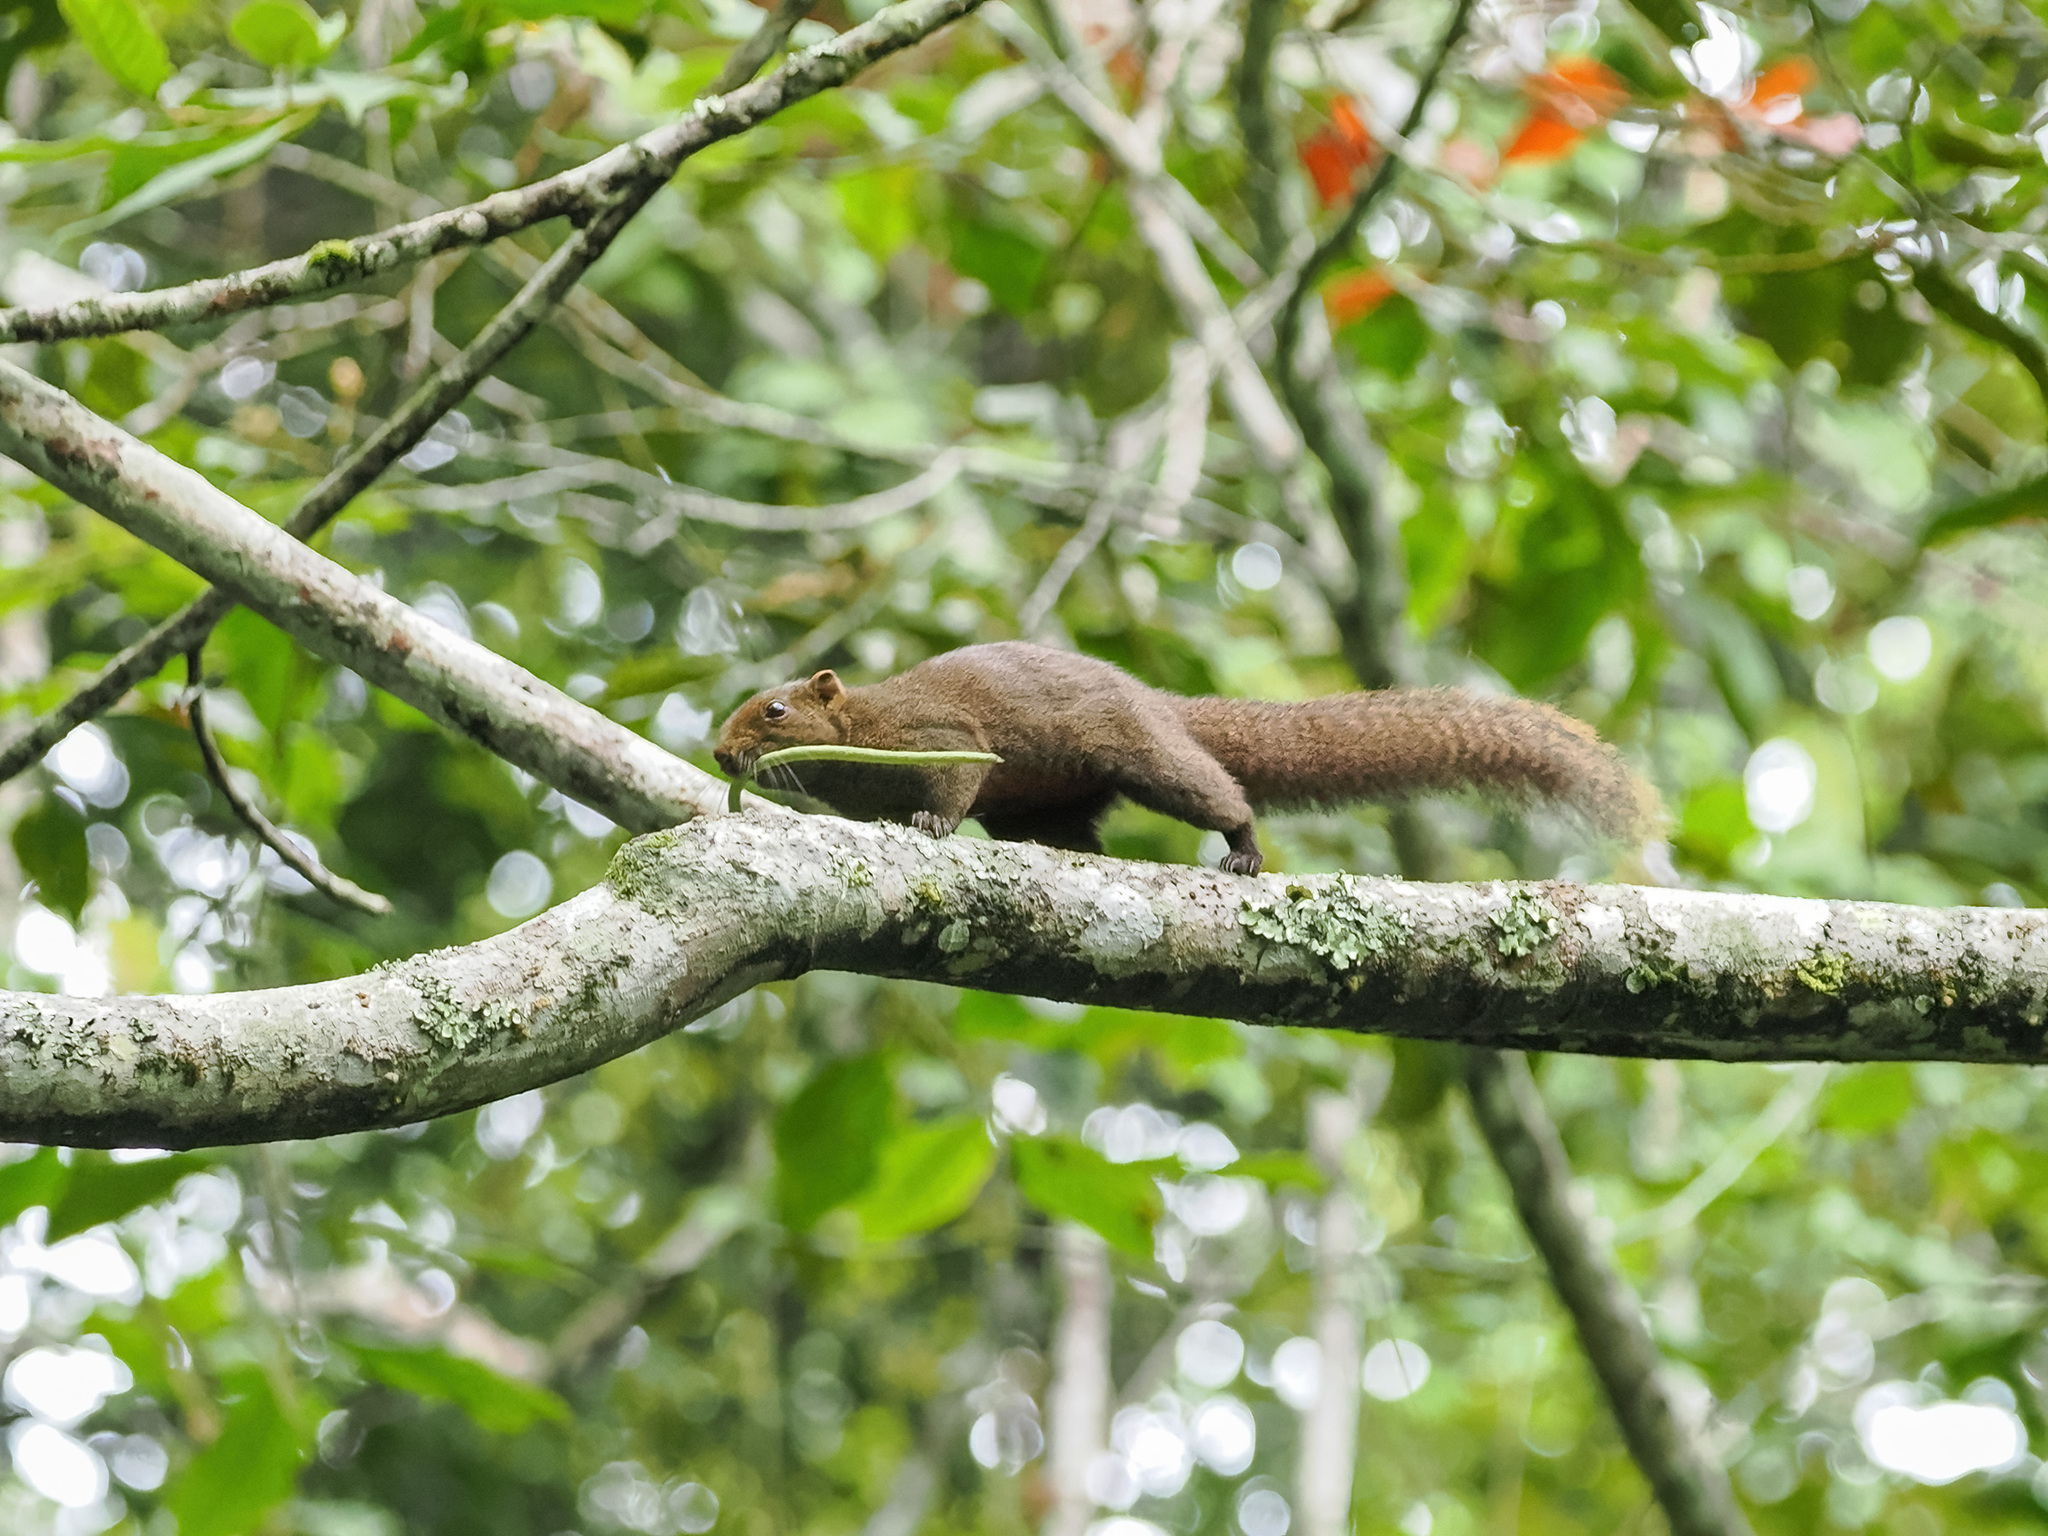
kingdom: Animalia
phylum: Chordata
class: Mammalia
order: Rodentia
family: Sciuridae
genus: Callosciurus
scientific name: Callosciurus erythraeus
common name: Pallas's squirrel
